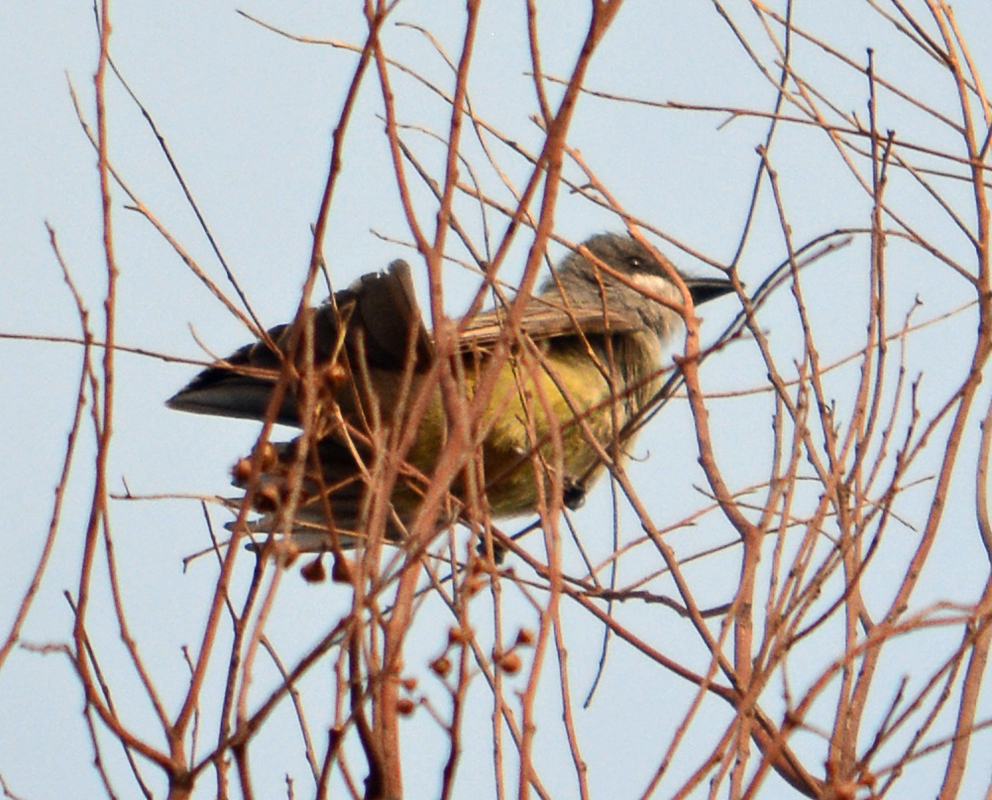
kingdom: Animalia
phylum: Chordata
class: Aves
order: Passeriformes
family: Tyrannidae
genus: Tyrannus
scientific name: Tyrannus vociferans
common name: Cassin's kingbird
